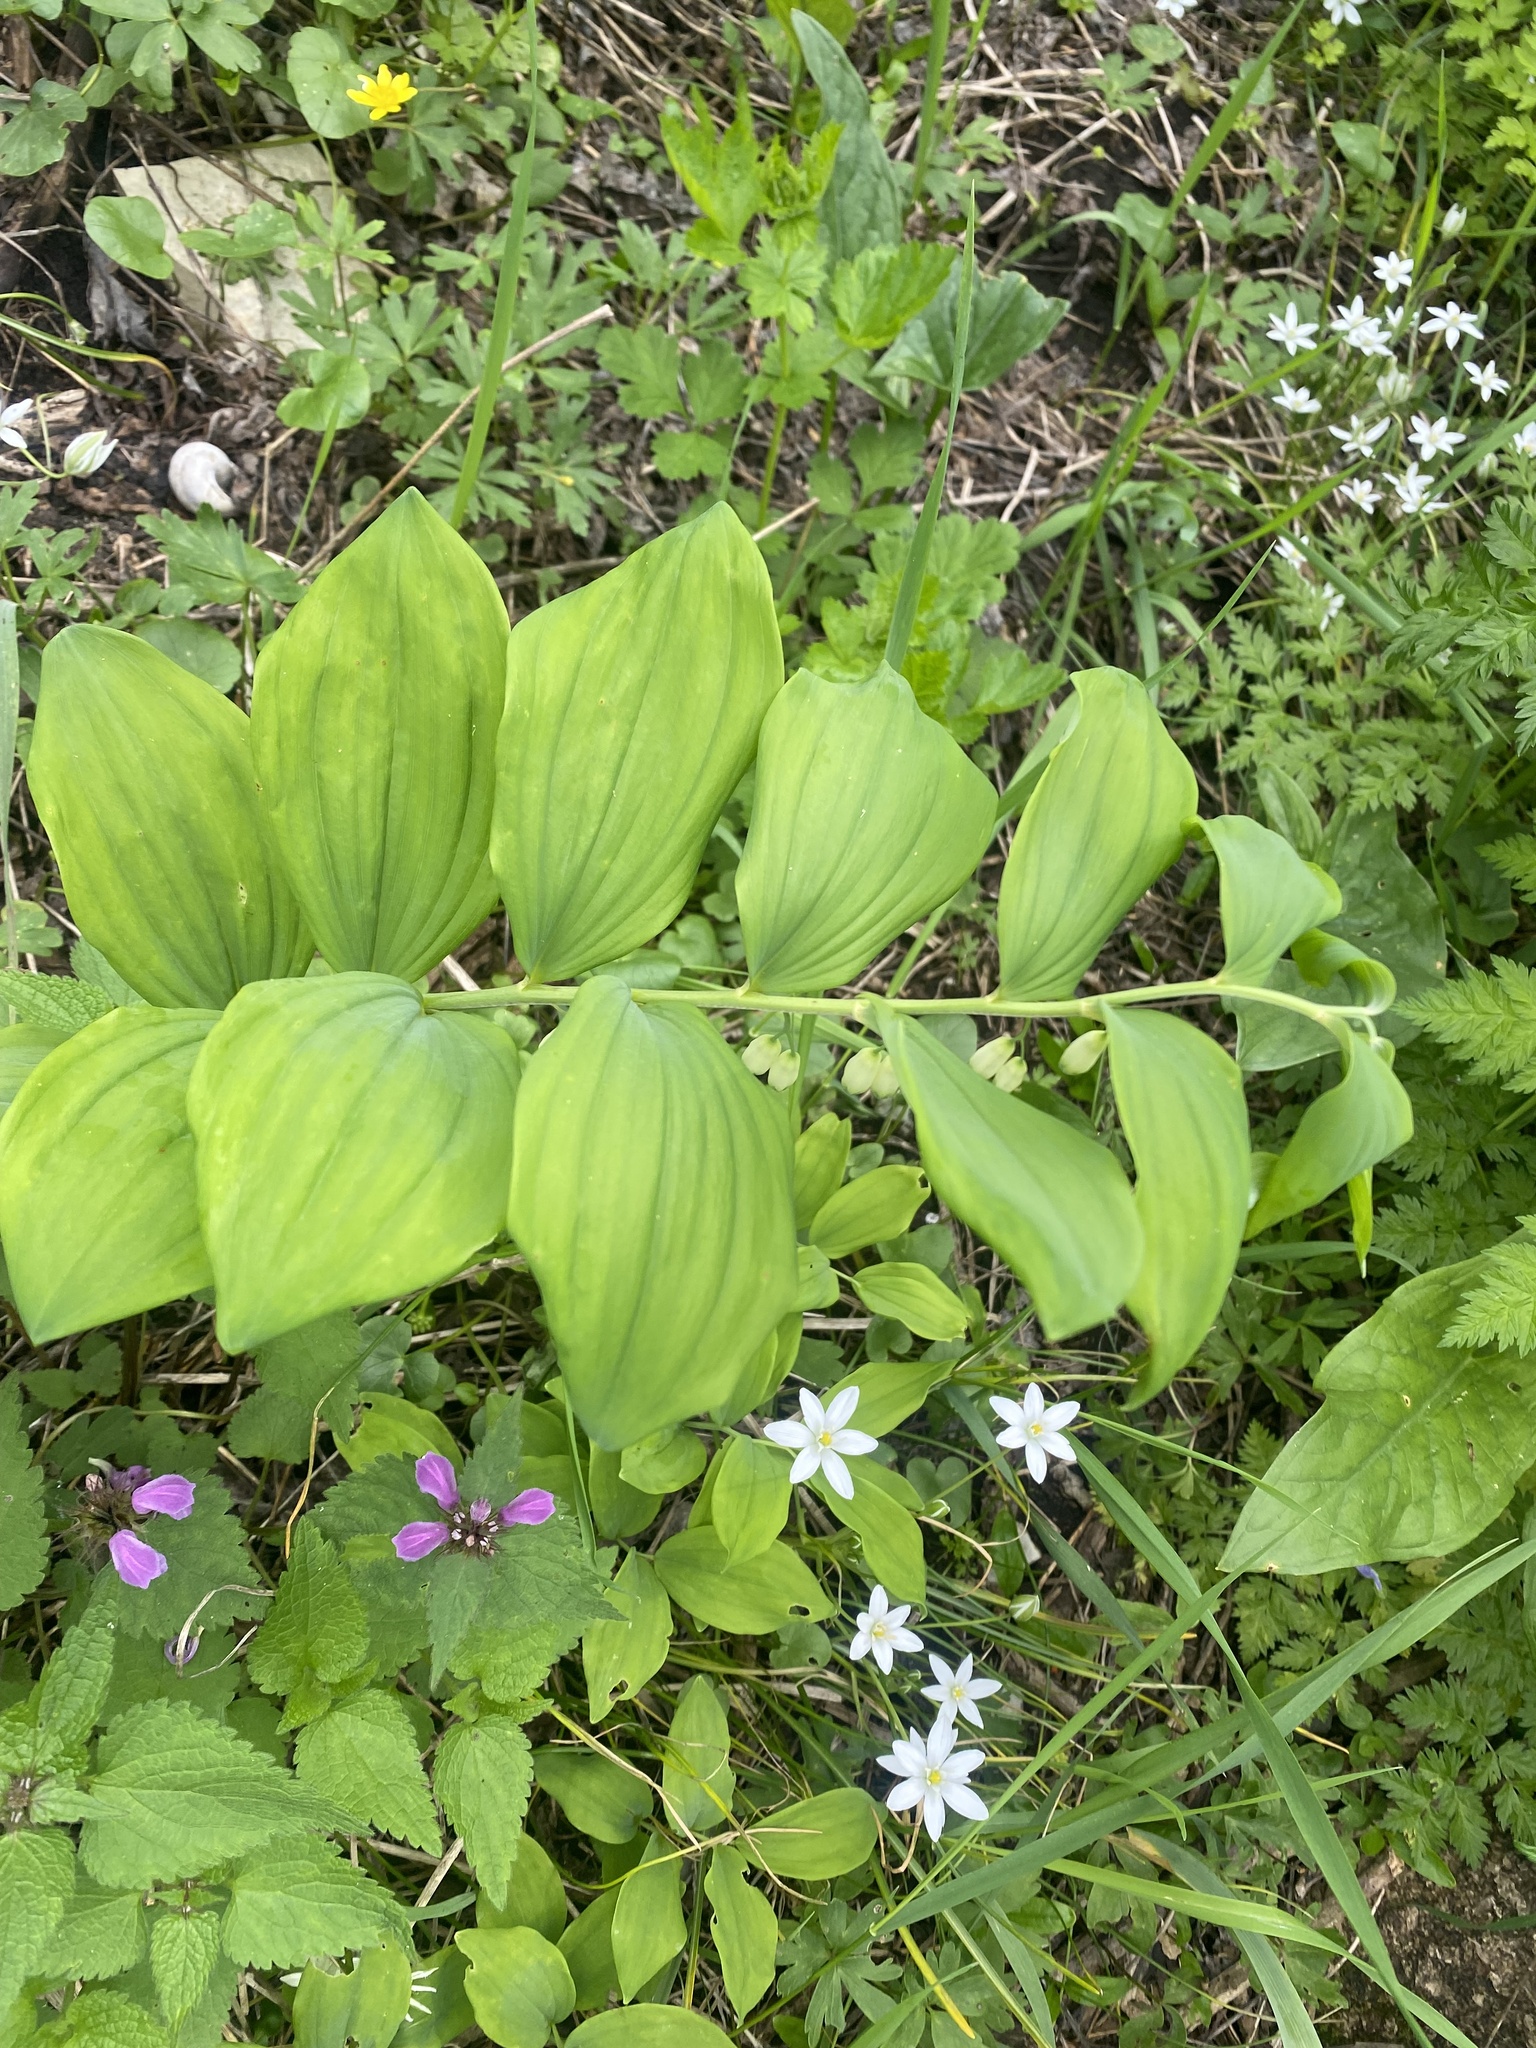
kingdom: Plantae
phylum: Tracheophyta
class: Liliopsida
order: Asparagales
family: Asparagaceae
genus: Polygonatum
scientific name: Polygonatum multiflorum
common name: Solomon's-seal
